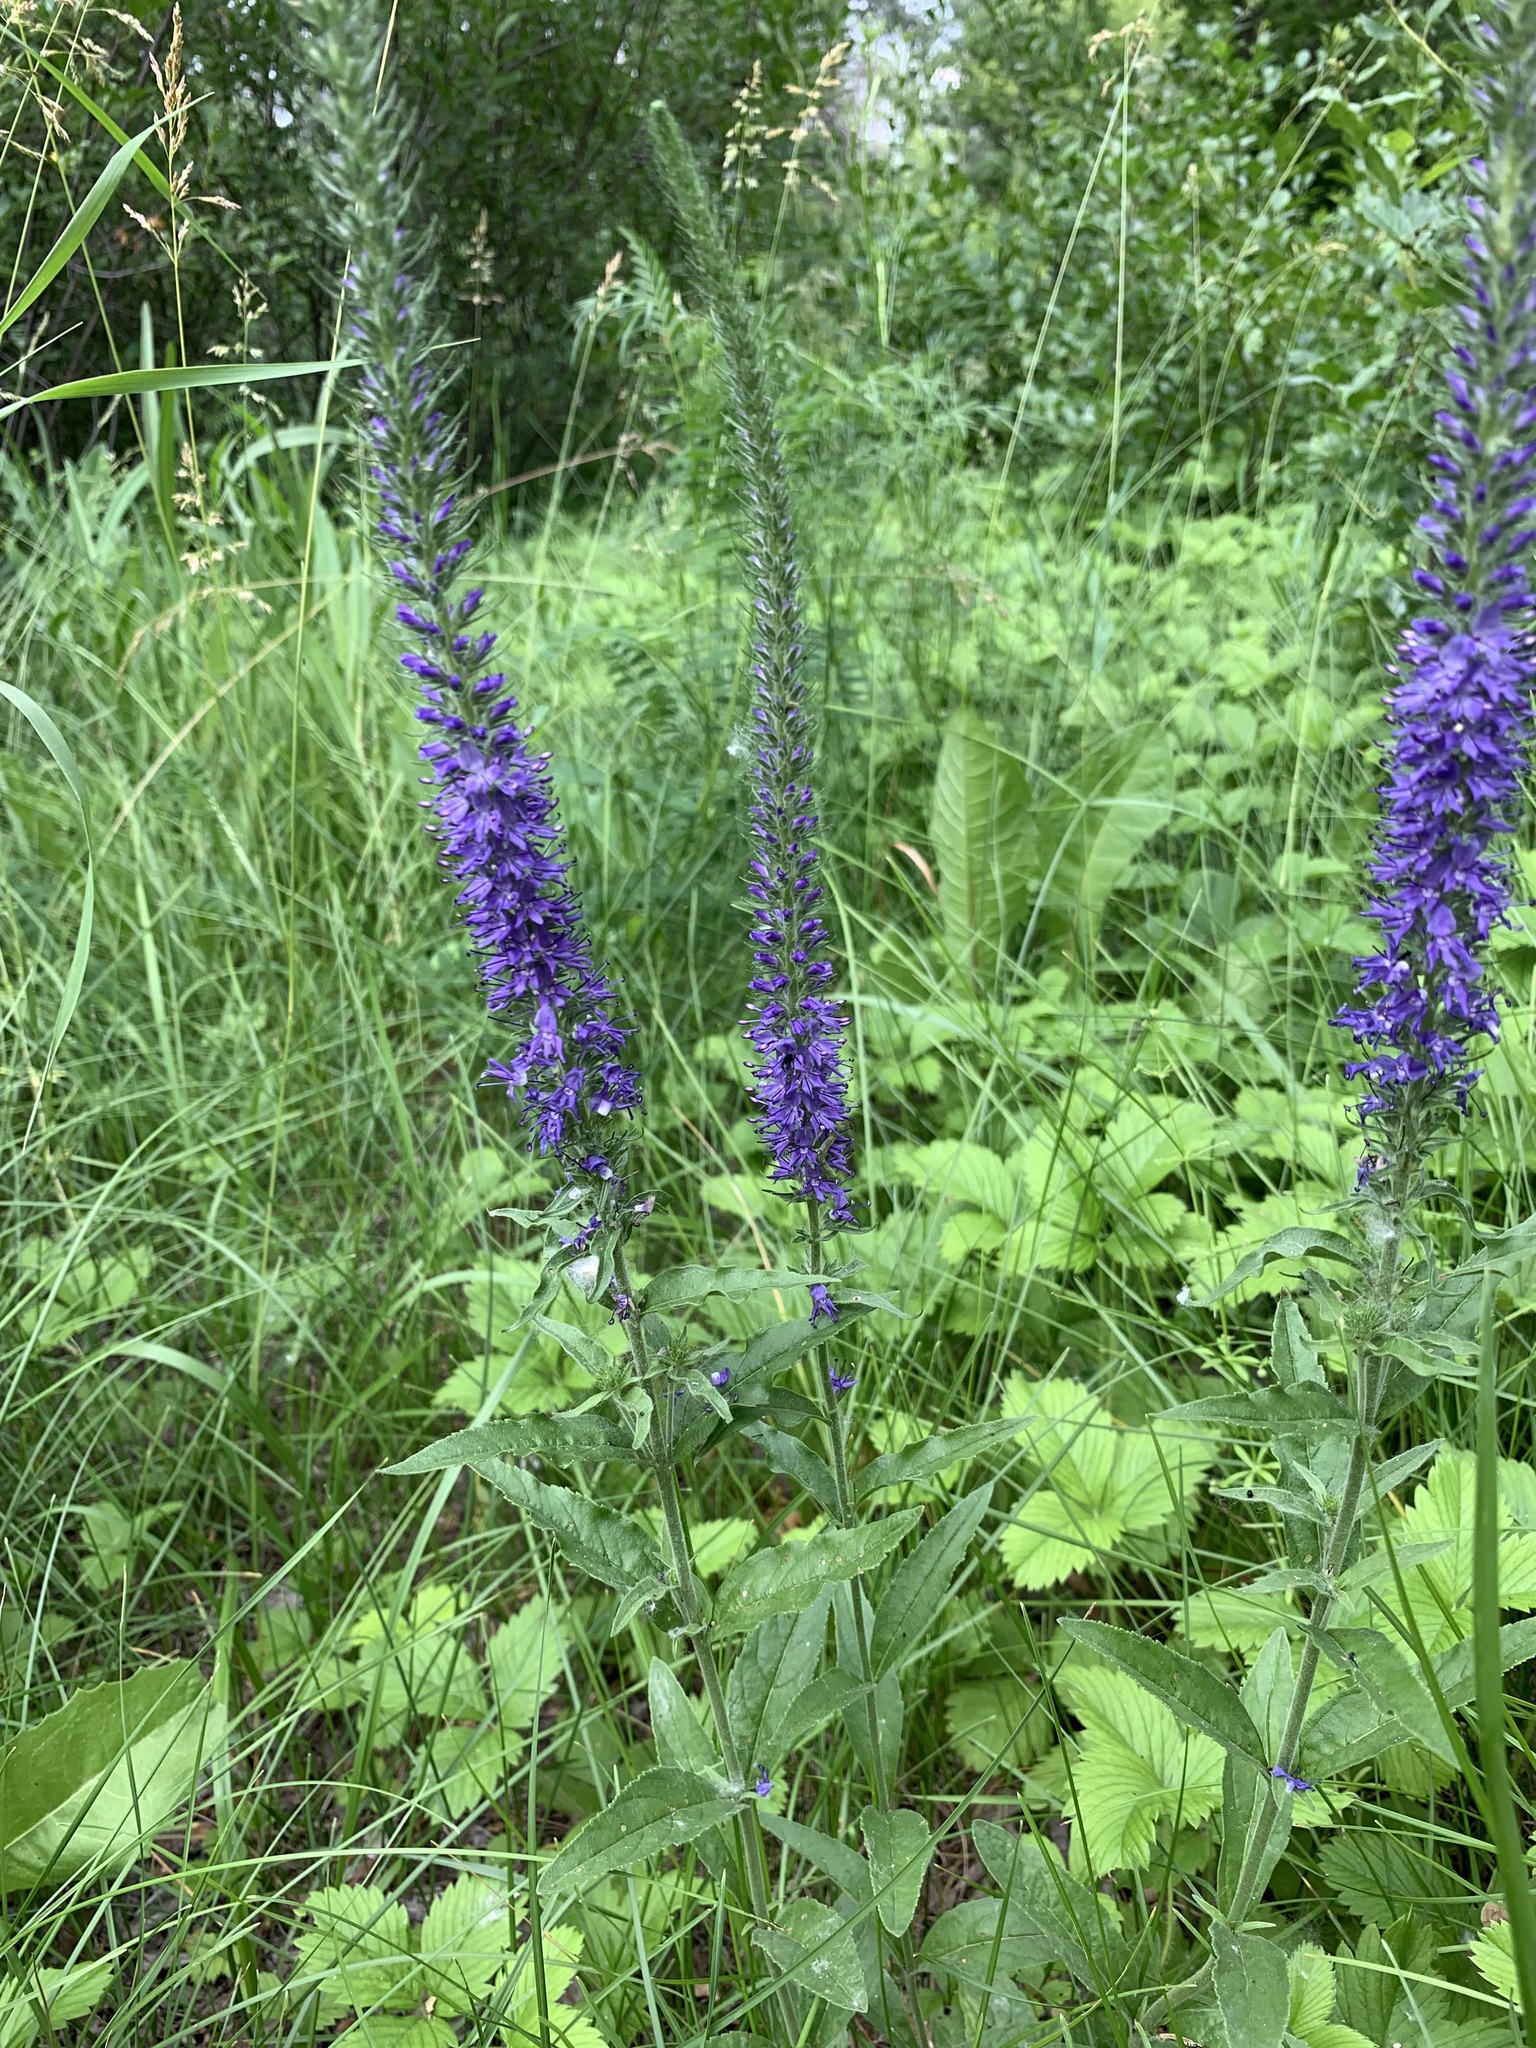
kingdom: Plantae
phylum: Tracheophyta
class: Magnoliopsida
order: Lamiales
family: Plantaginaceae
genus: Veronica
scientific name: Veronica spicata
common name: Spiked speedwell
